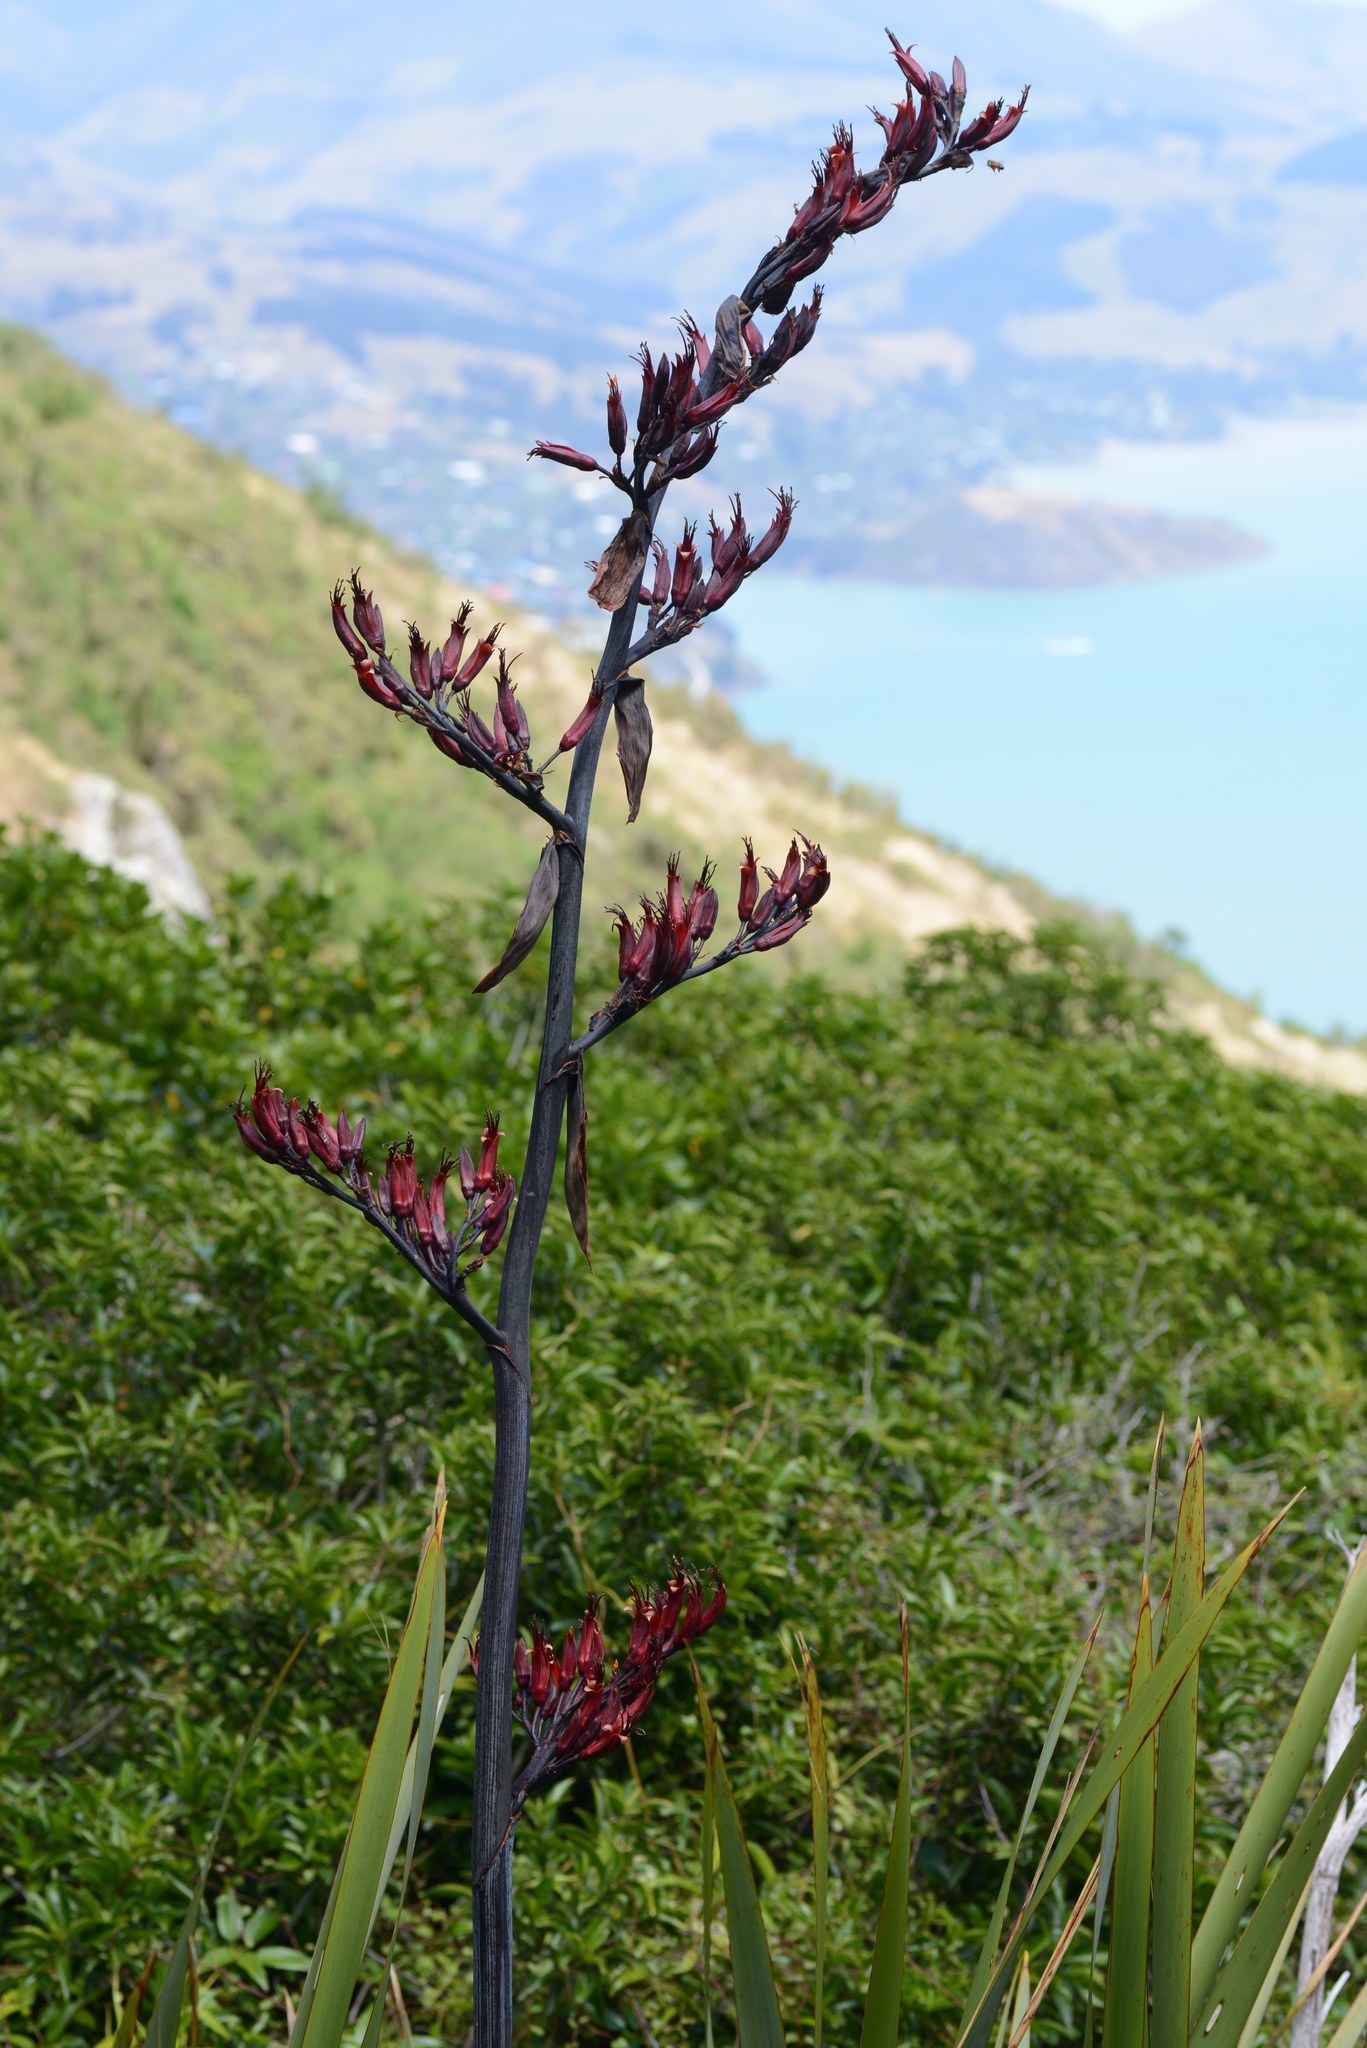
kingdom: Plantae
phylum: Tracheophyta
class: Liliopsida
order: Asparagales
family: Asphodelaceae
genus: Phormium
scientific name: Phormium tenax
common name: New zealand flax
